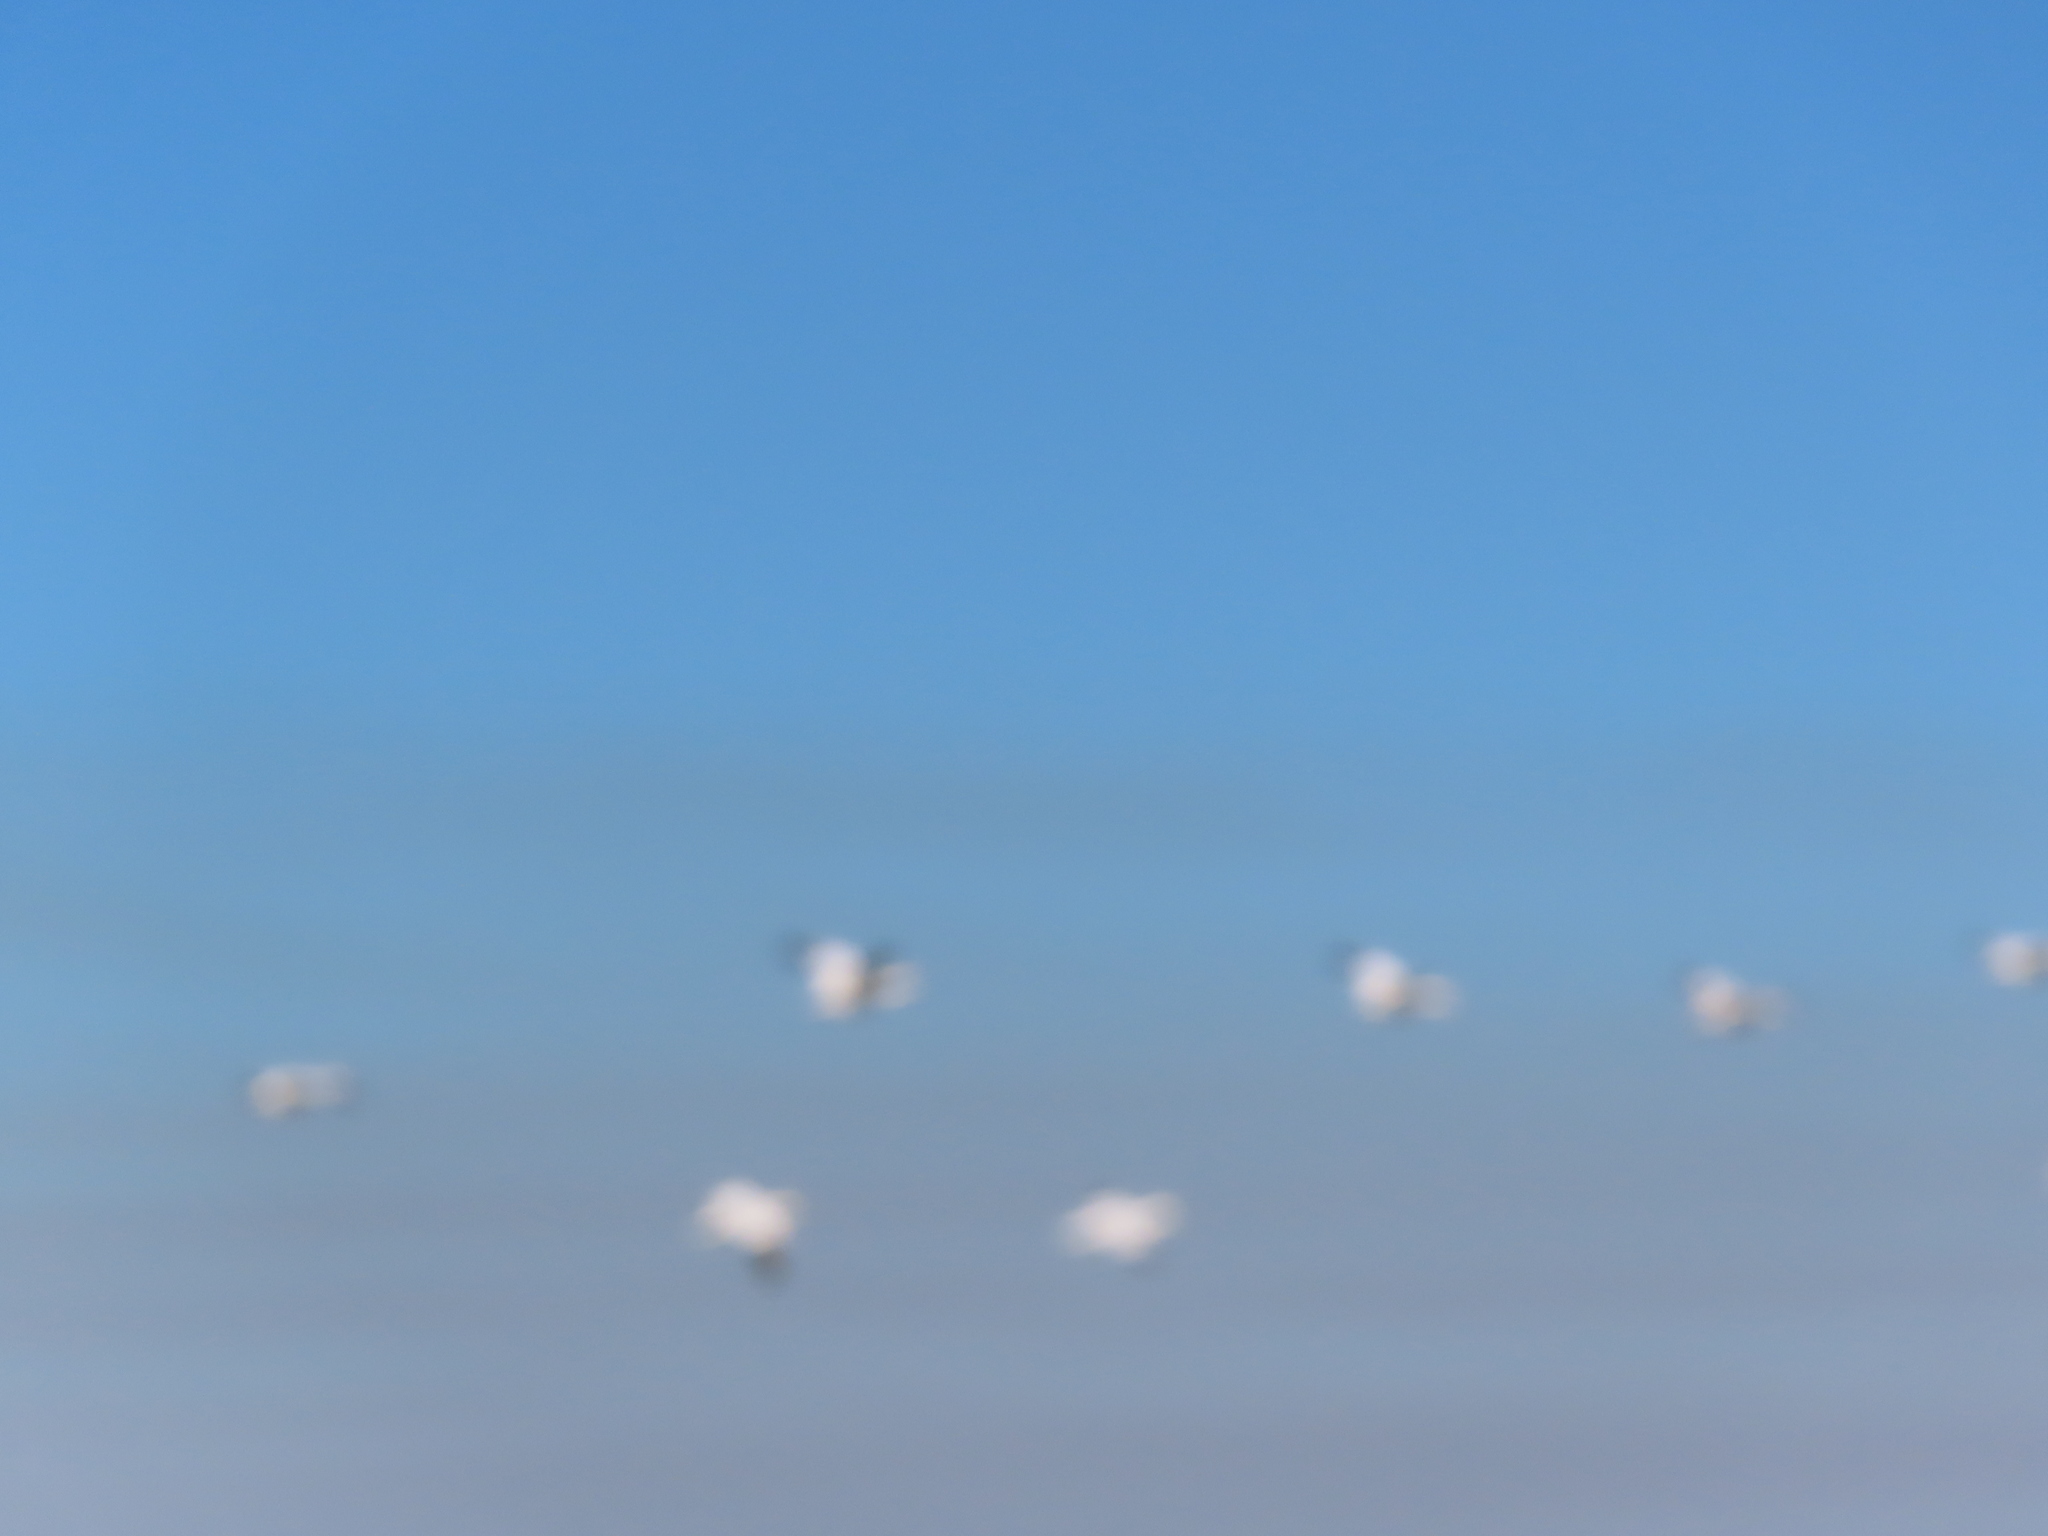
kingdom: Animalia
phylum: Chordata
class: Aves
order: Anseriformes
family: Anatidae
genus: Anser
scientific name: Anser caerulescens
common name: Snow goose
